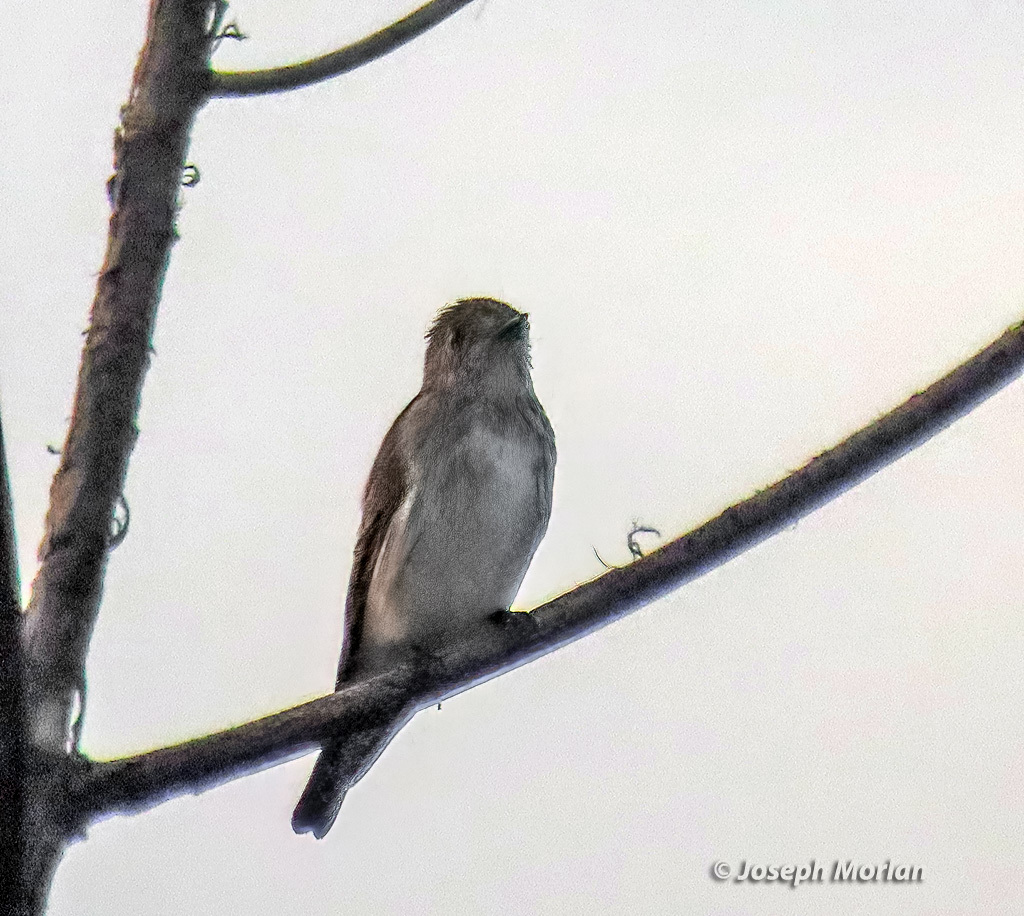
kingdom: Animalia
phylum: Chordata
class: Aves
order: Passeriformes
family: Muscicapidae
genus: Muscicapa
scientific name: Muscicapa griseisticta
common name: Gray-streaked flycatcher
